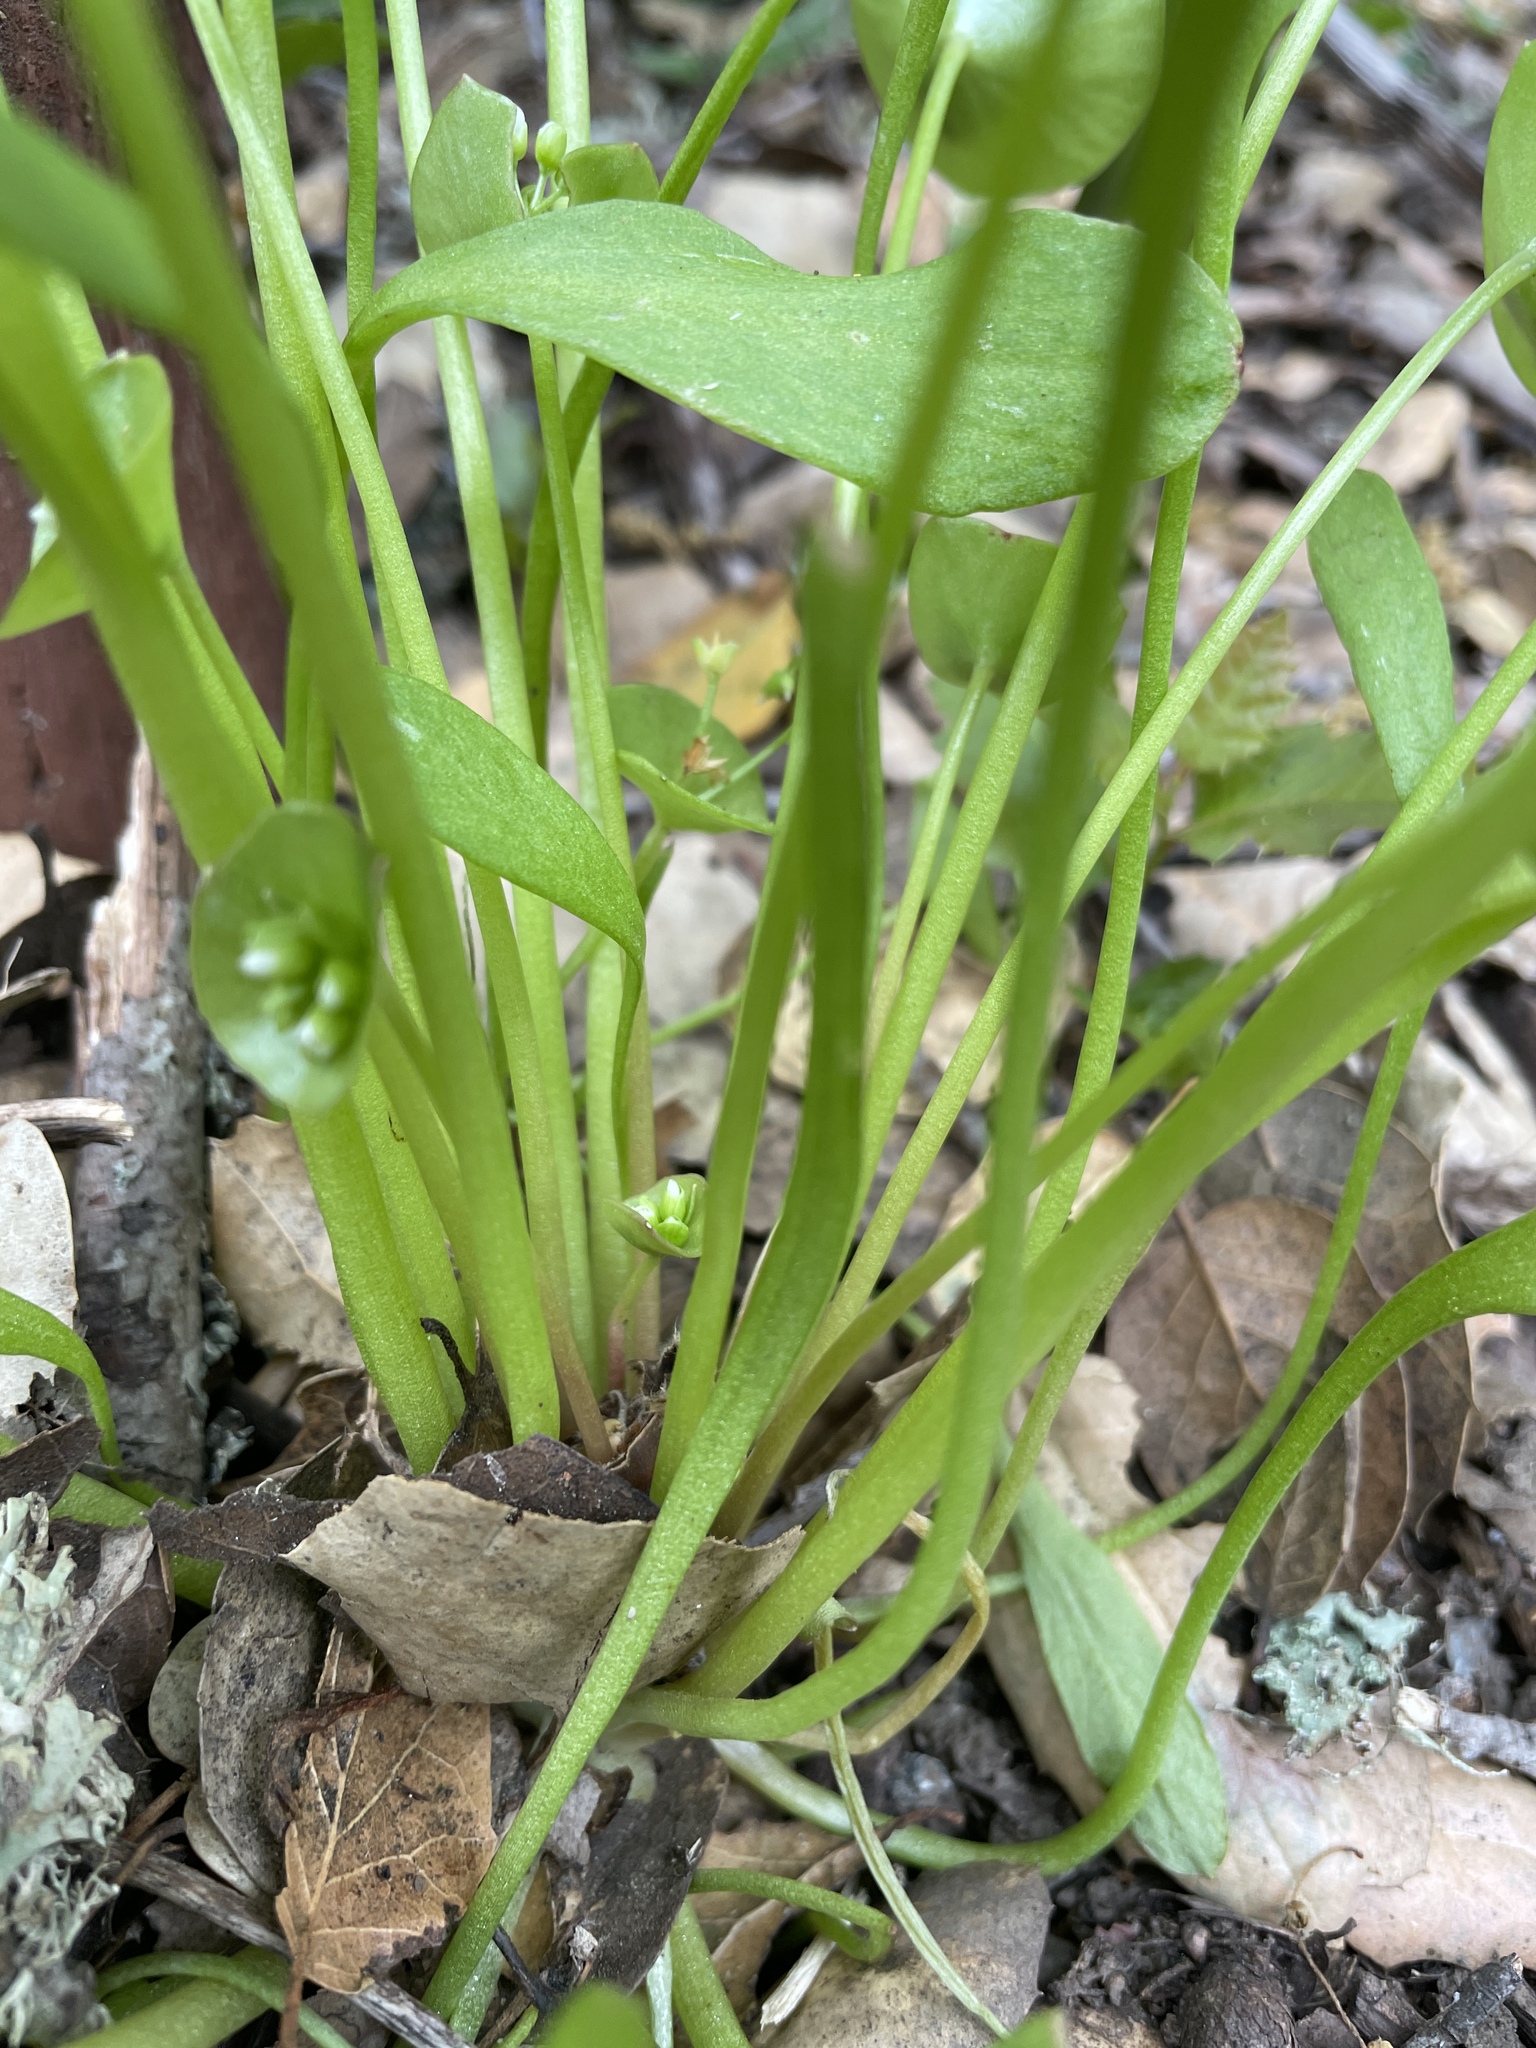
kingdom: Plantae
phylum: Tracheophyta
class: Magnoliopsida
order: Caryophyllales
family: Montiaceae
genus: Claytonia
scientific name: Claytonia perfoliata
